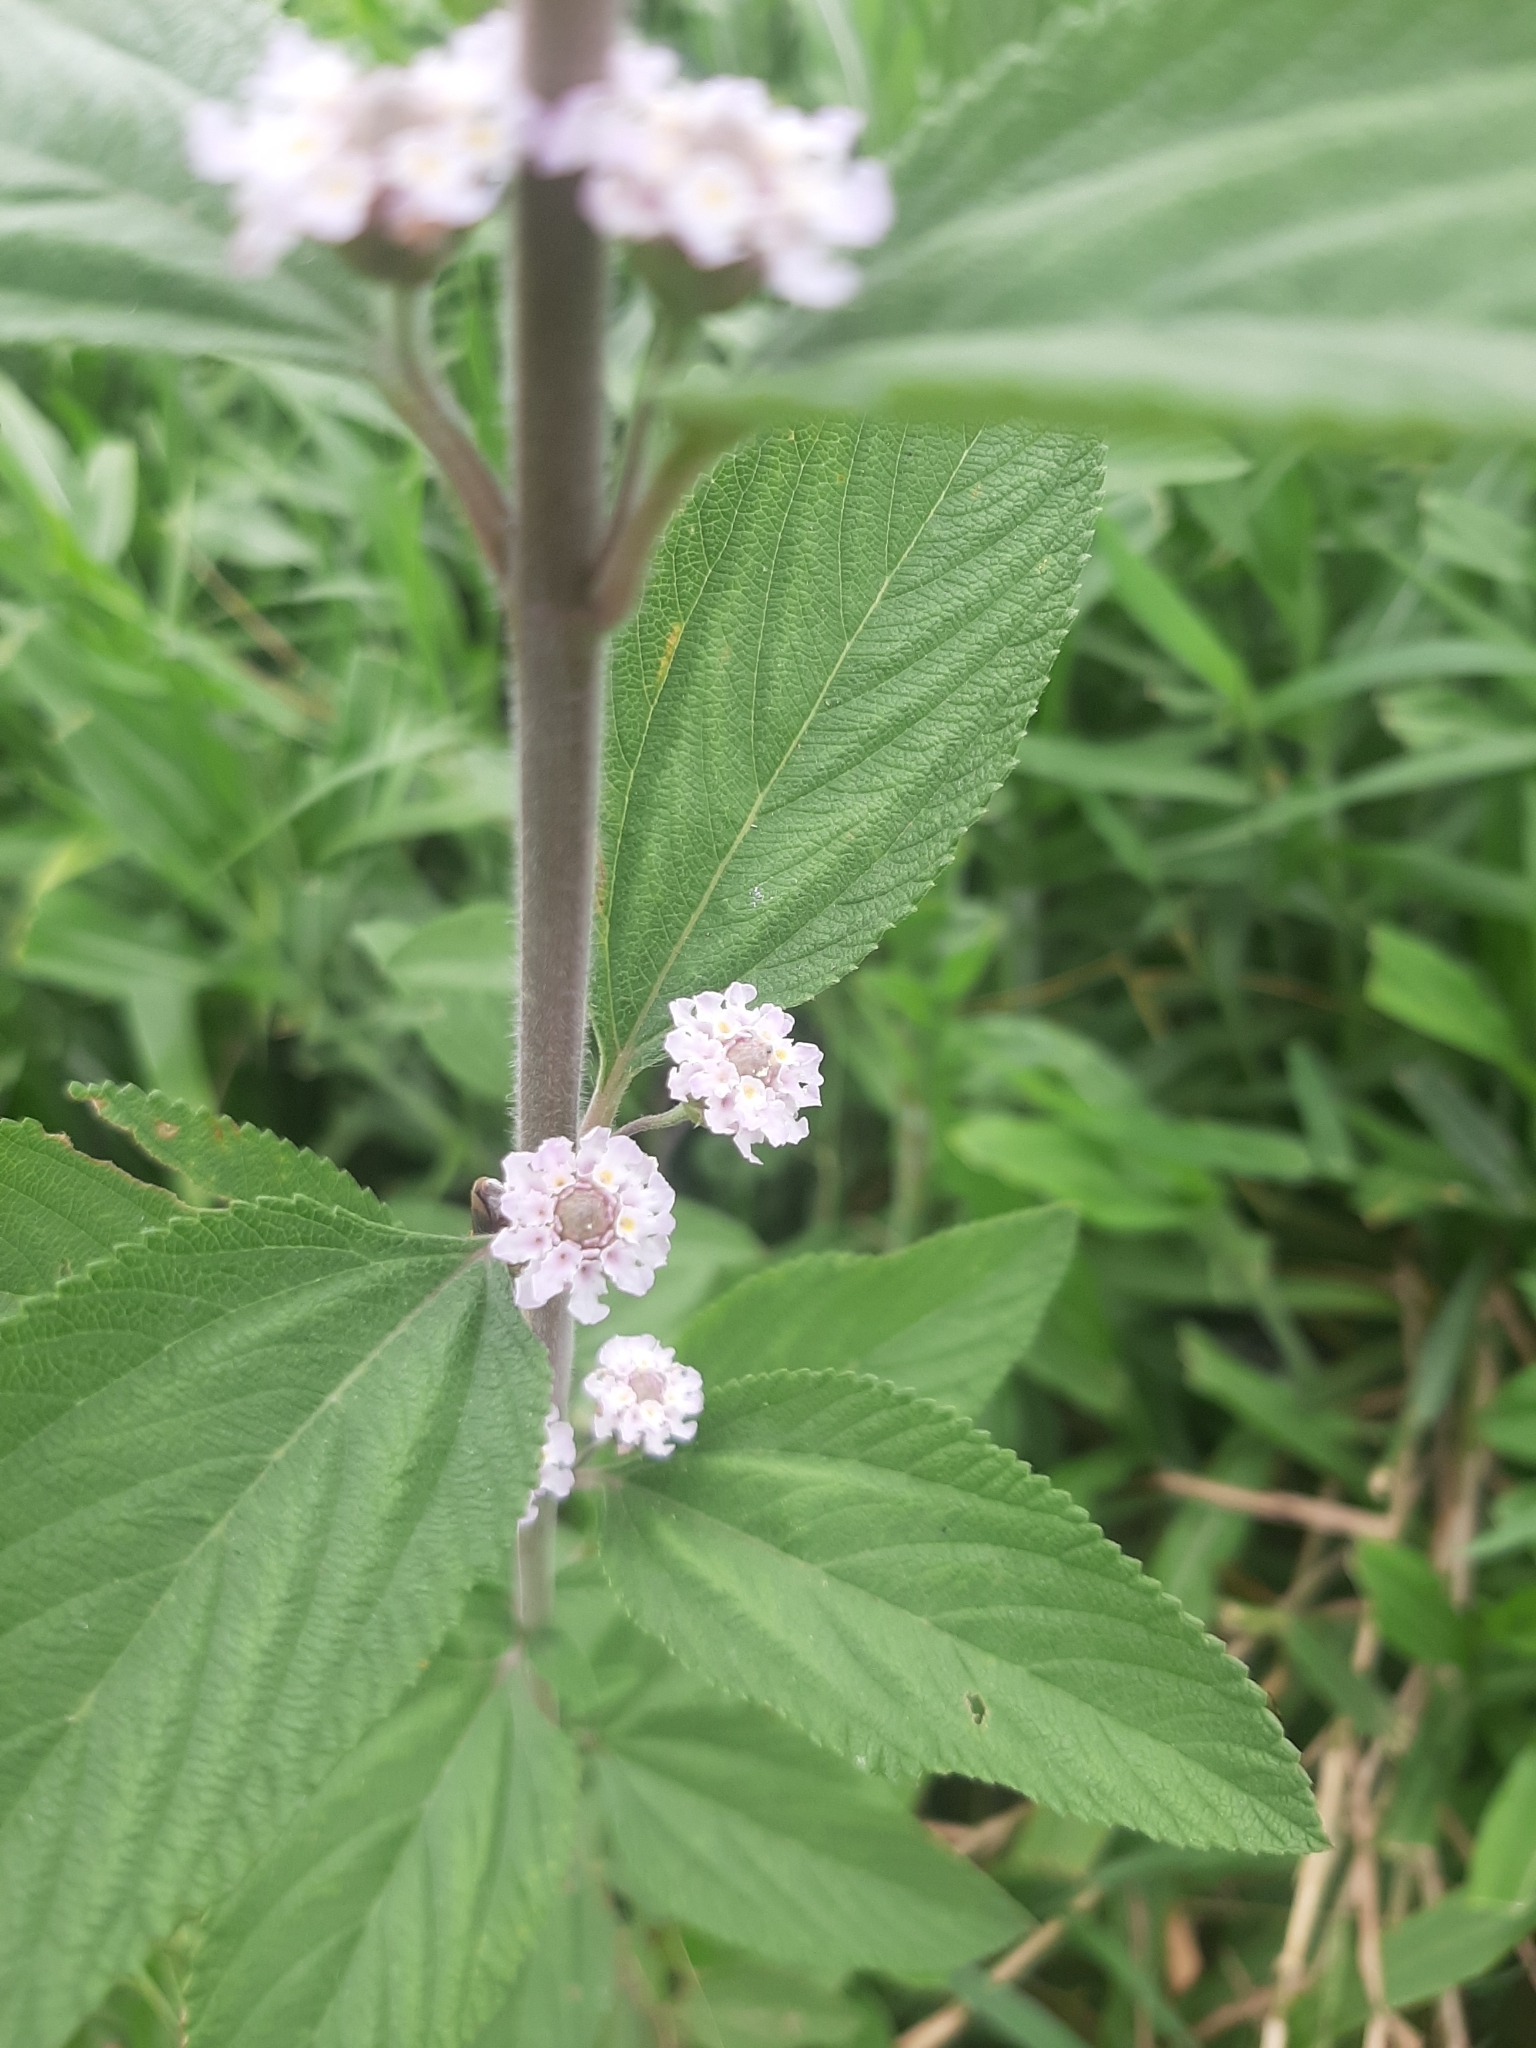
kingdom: Plantae
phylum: Tracheophyta
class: Magnoliopsida
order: Lamiales
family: Verbenaceae
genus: Lippia
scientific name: Lippia alba
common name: Bushy matgrass
